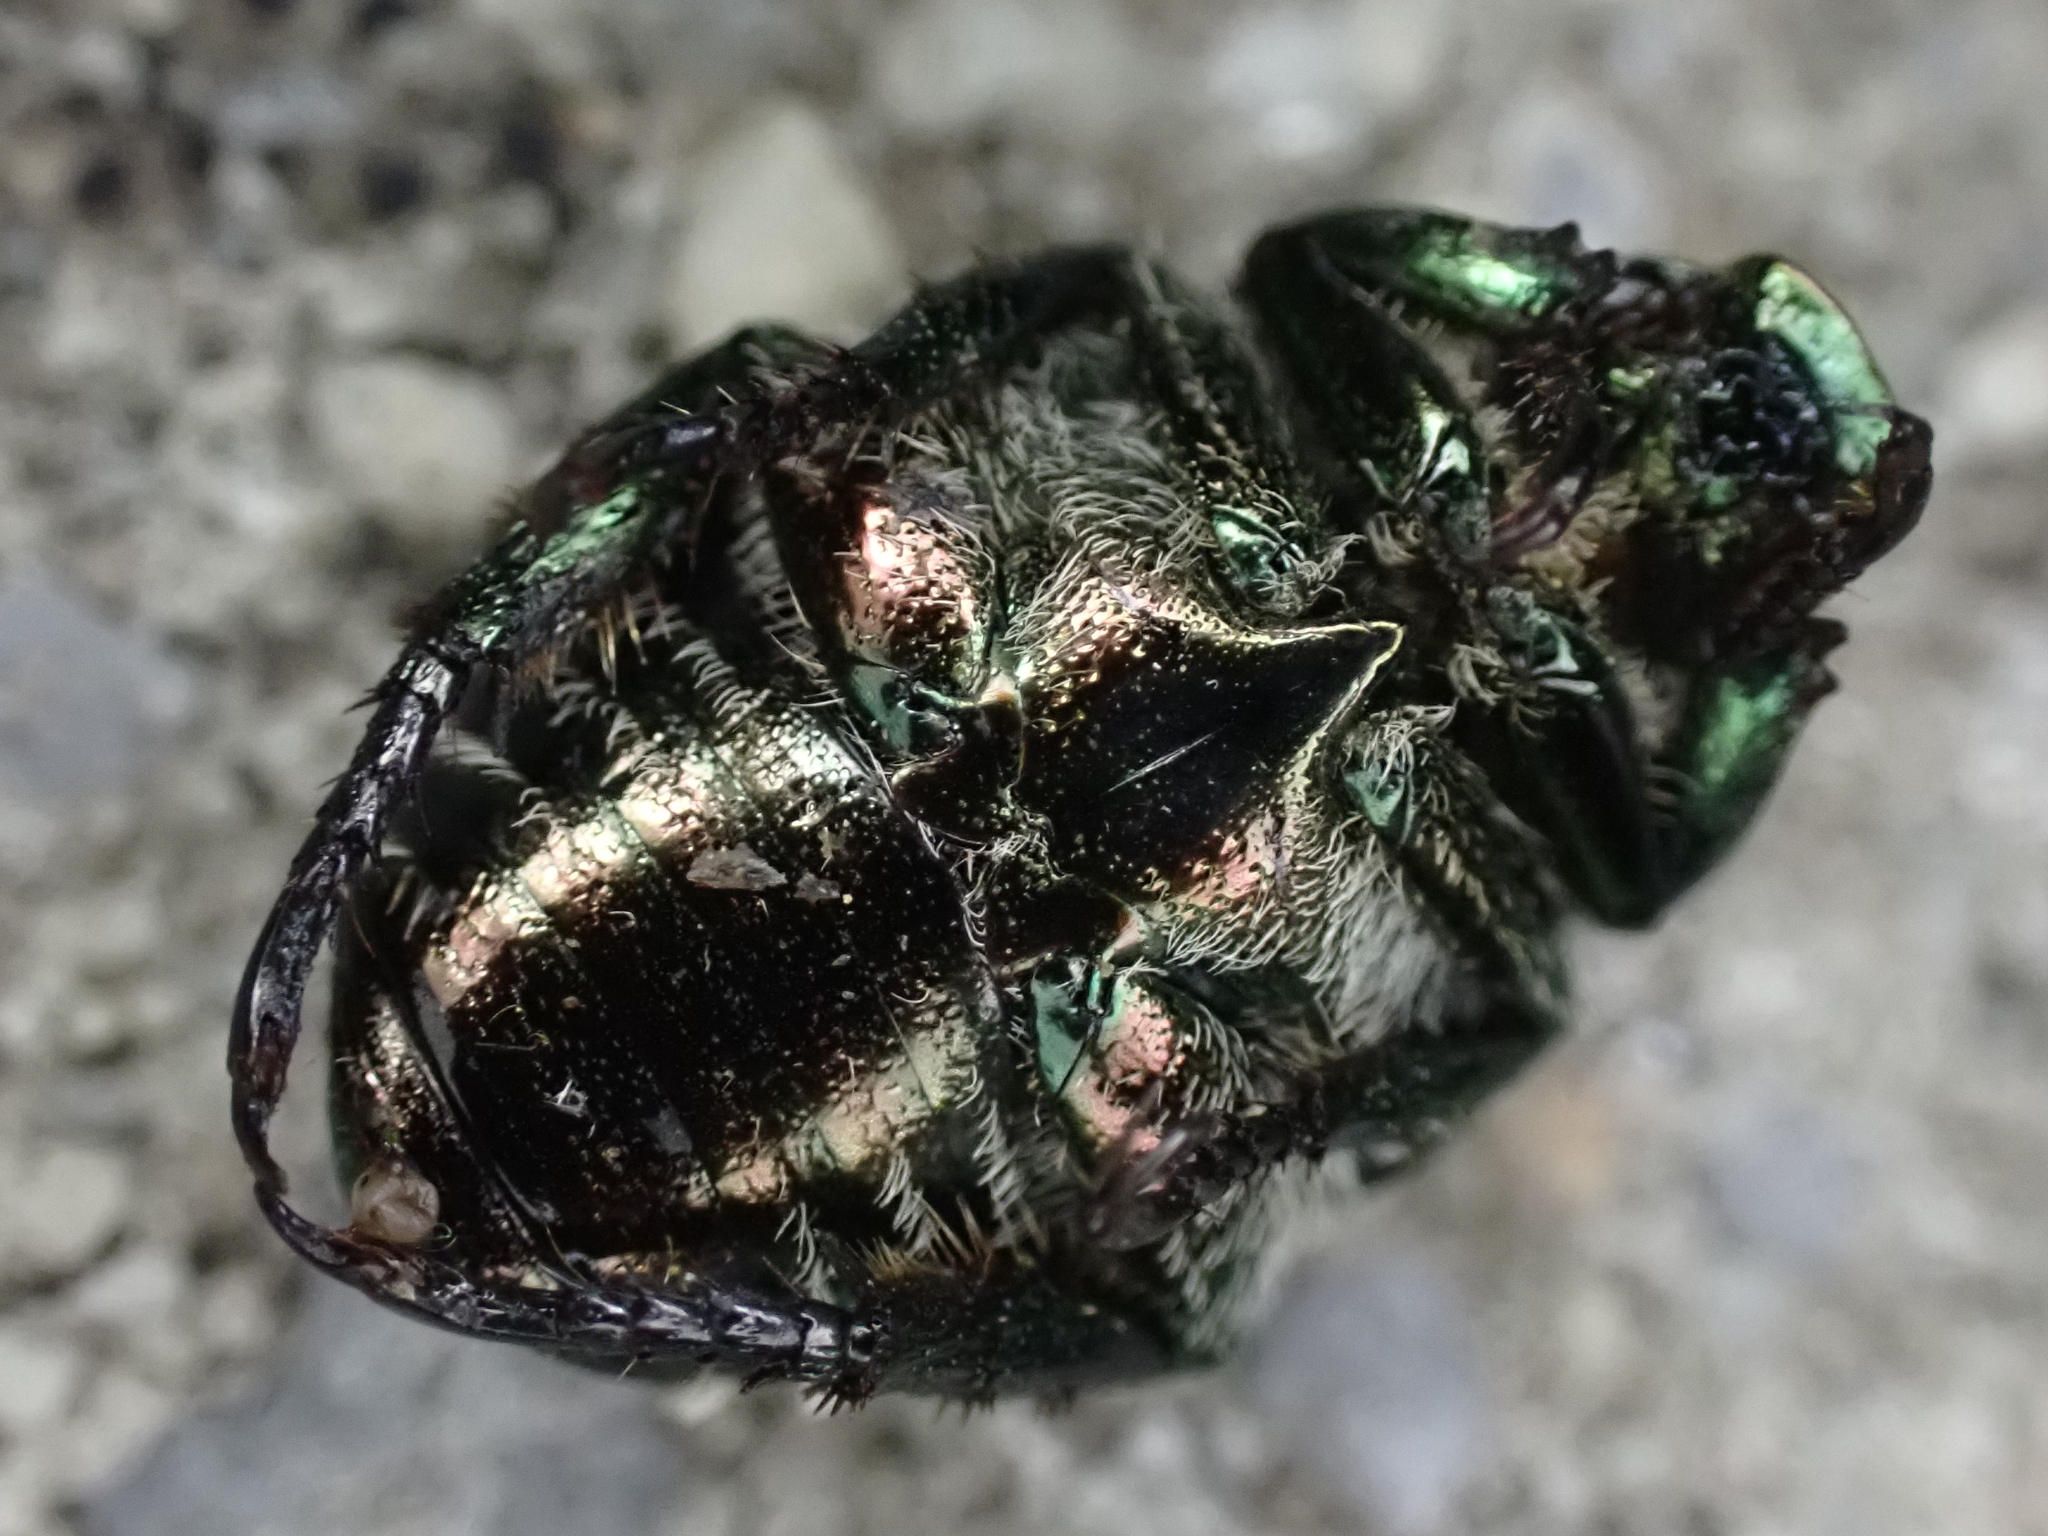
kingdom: Animalia
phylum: Arthropoda
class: Insecta
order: Coleoptera
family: Scarabaeidae
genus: Popillia
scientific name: Popillia japonica
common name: Japanese beetle
